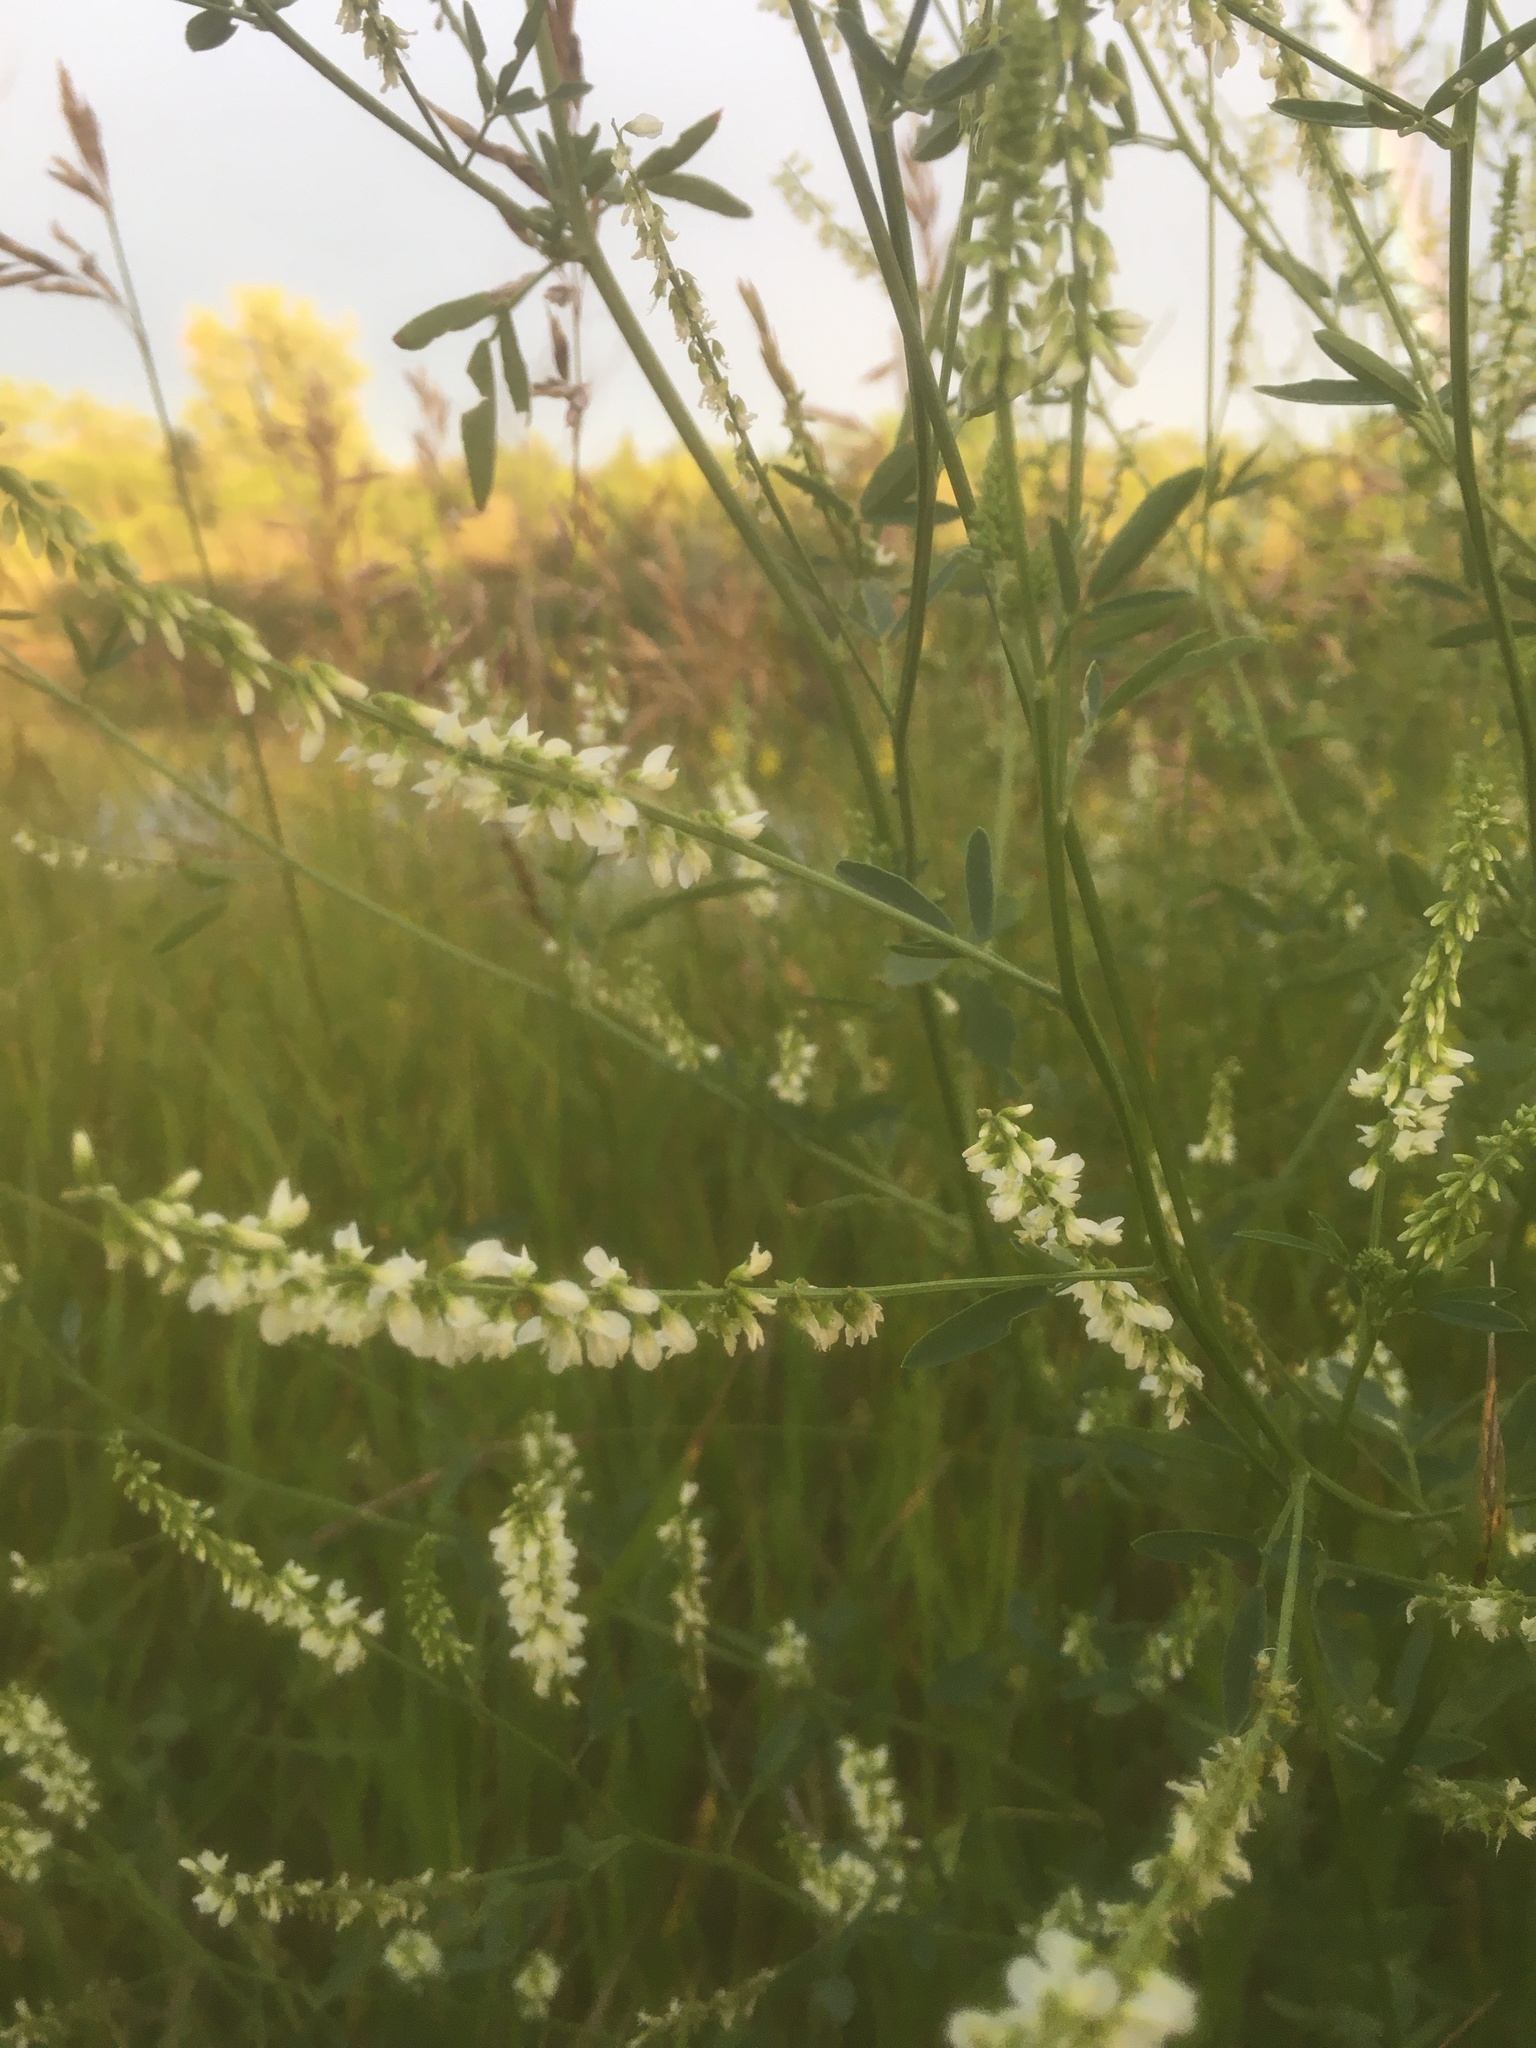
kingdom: Plantae
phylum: Tracheophyta
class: Magnoliopsida
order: Fabales
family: Fabaceae
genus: Melilotus
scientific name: Melilotus albus
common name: White melilot
